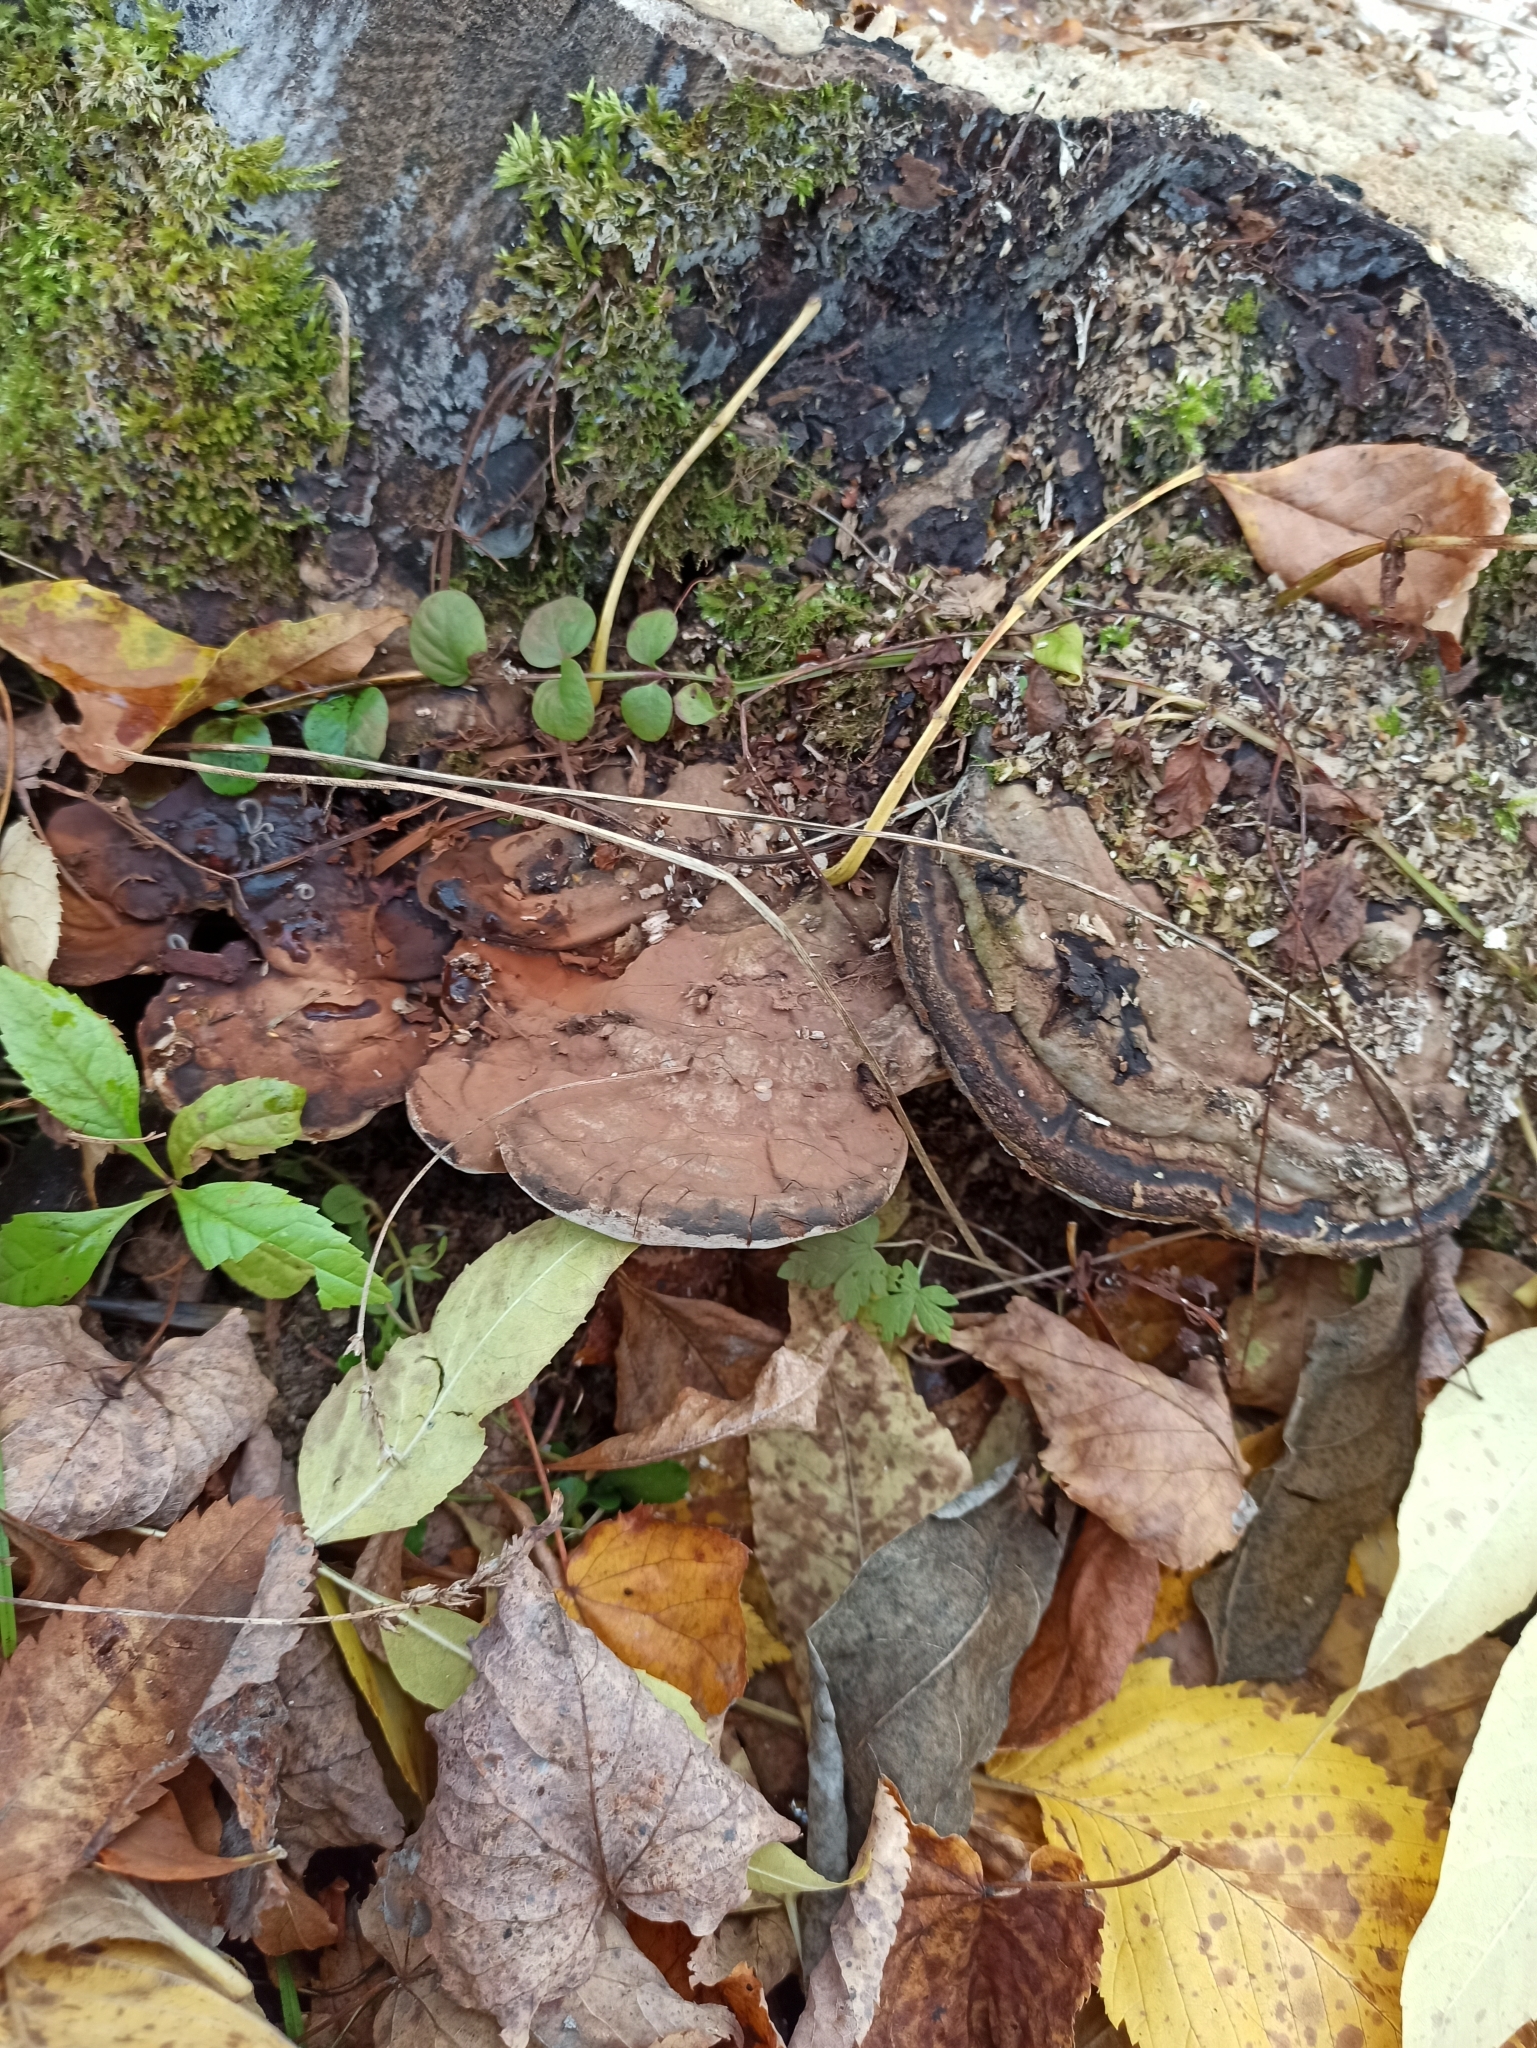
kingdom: Fungi
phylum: Basidiomycota
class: Agaricomycetes
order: Polyporales
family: Polyporaceae
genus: Ganoderma
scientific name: Ganoderma applanatum
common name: Artist's bracket
